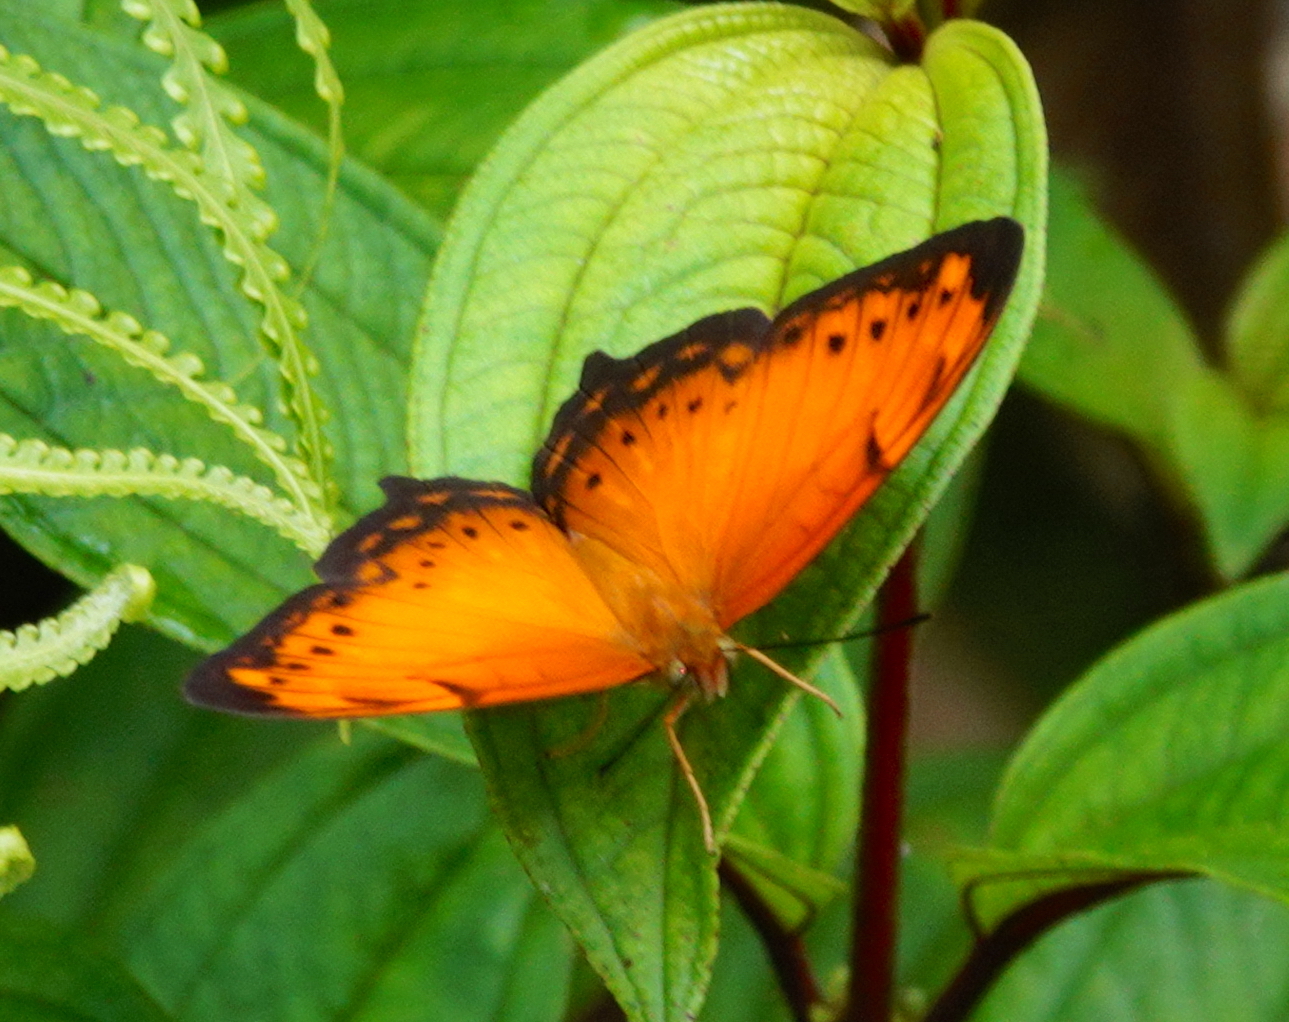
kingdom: Animalia
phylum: Arthropoda
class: Insecta
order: Lepidoptera
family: Nymphalidae
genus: Vagrans
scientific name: Vagrans egista
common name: Tailed rustic
